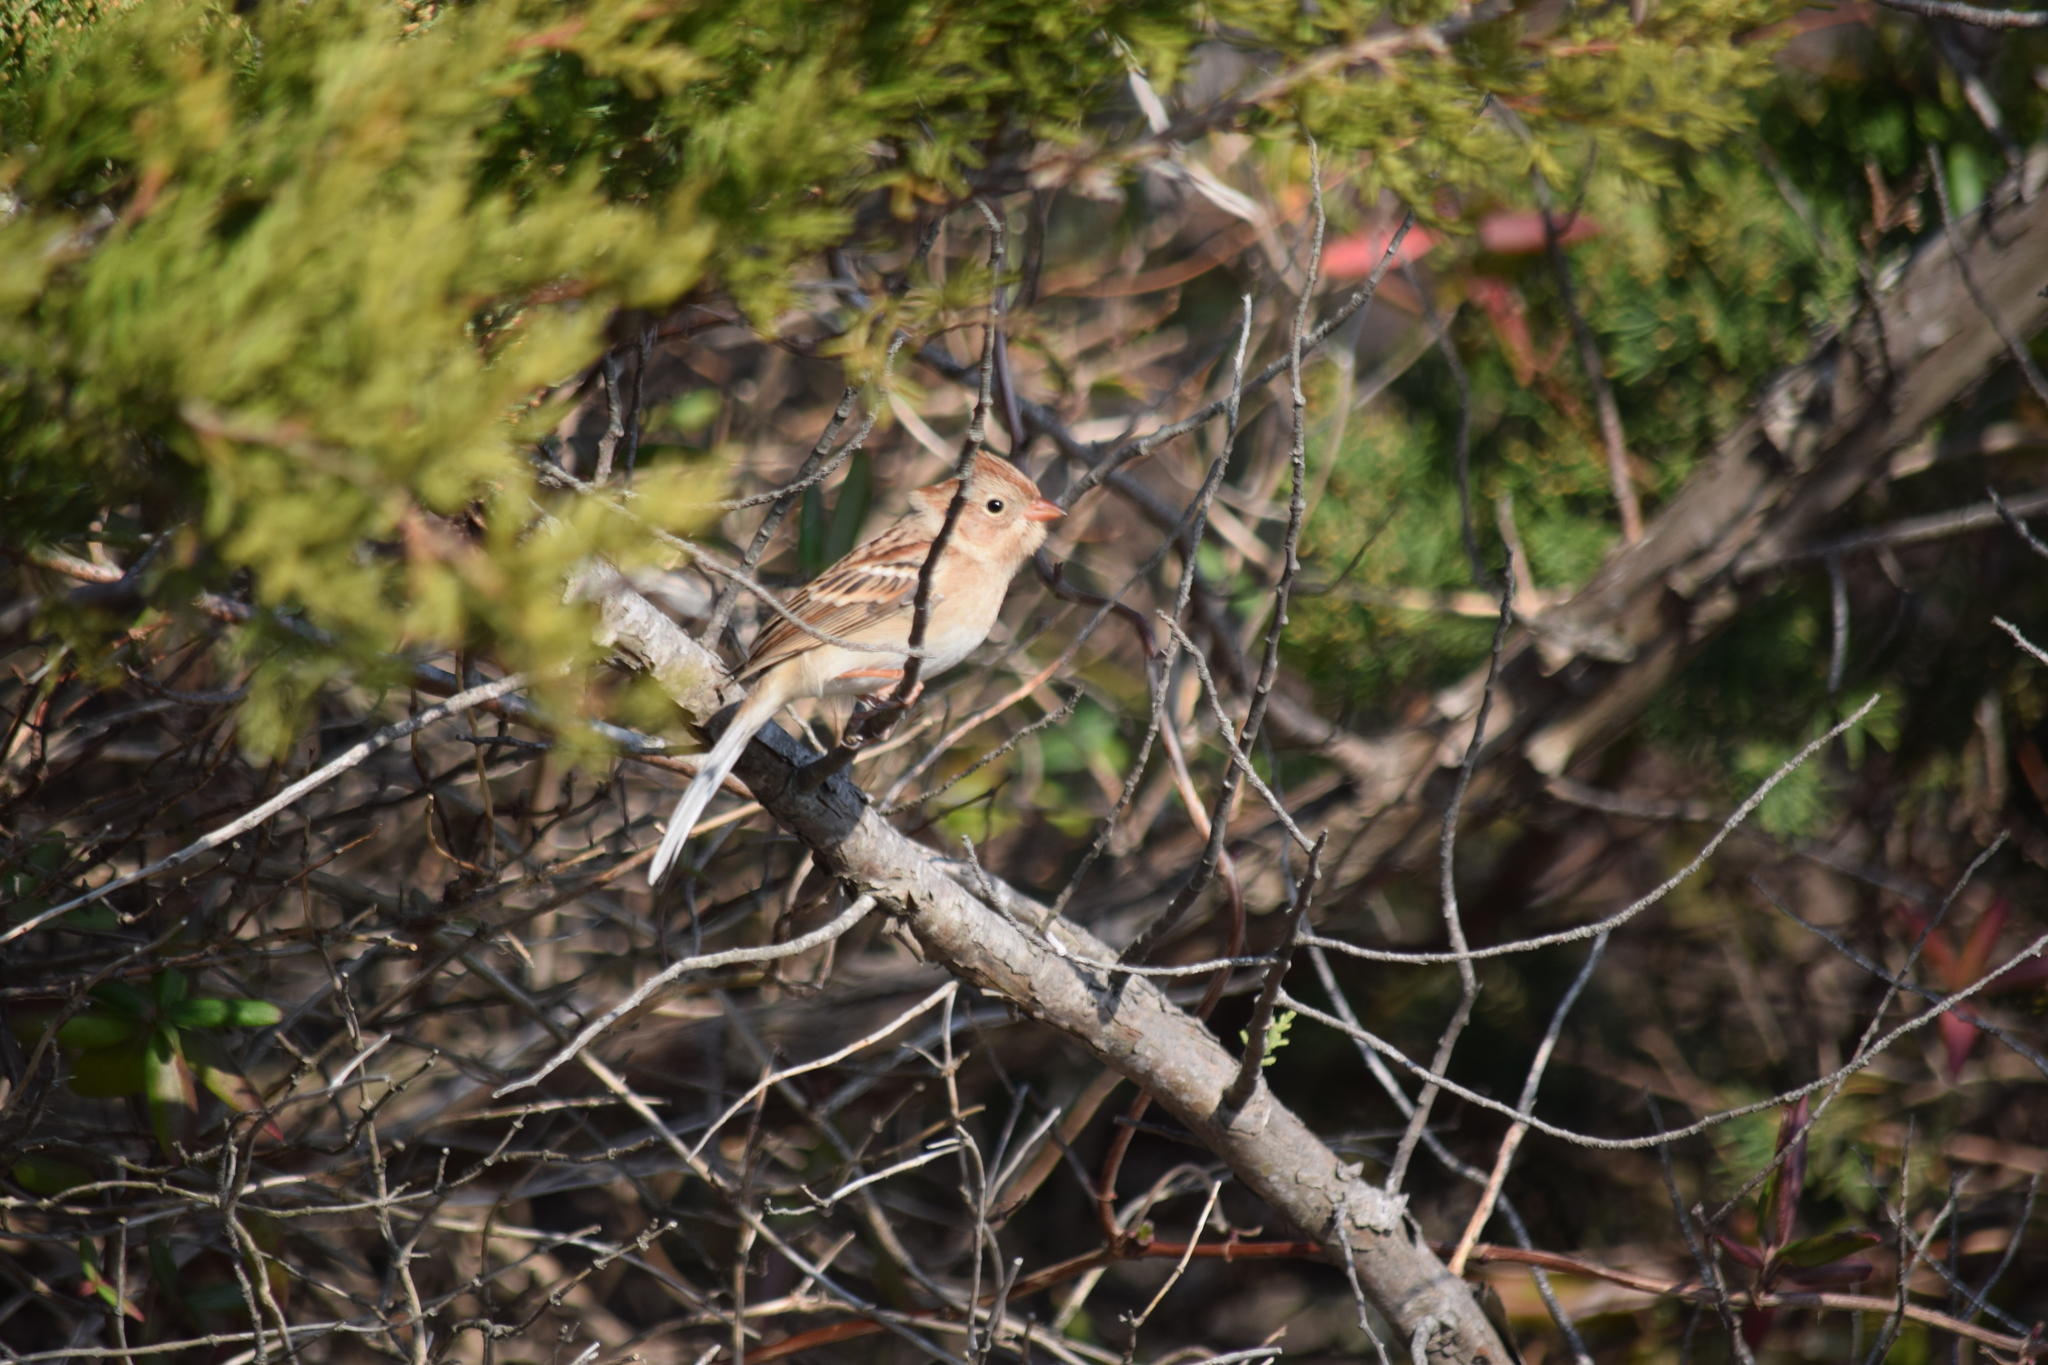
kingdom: Animalia
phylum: Chordata
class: Aves
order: Passeriformes
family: Passerellidae
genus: Spizella
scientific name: Spizella pusilla
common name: Field sparrow
